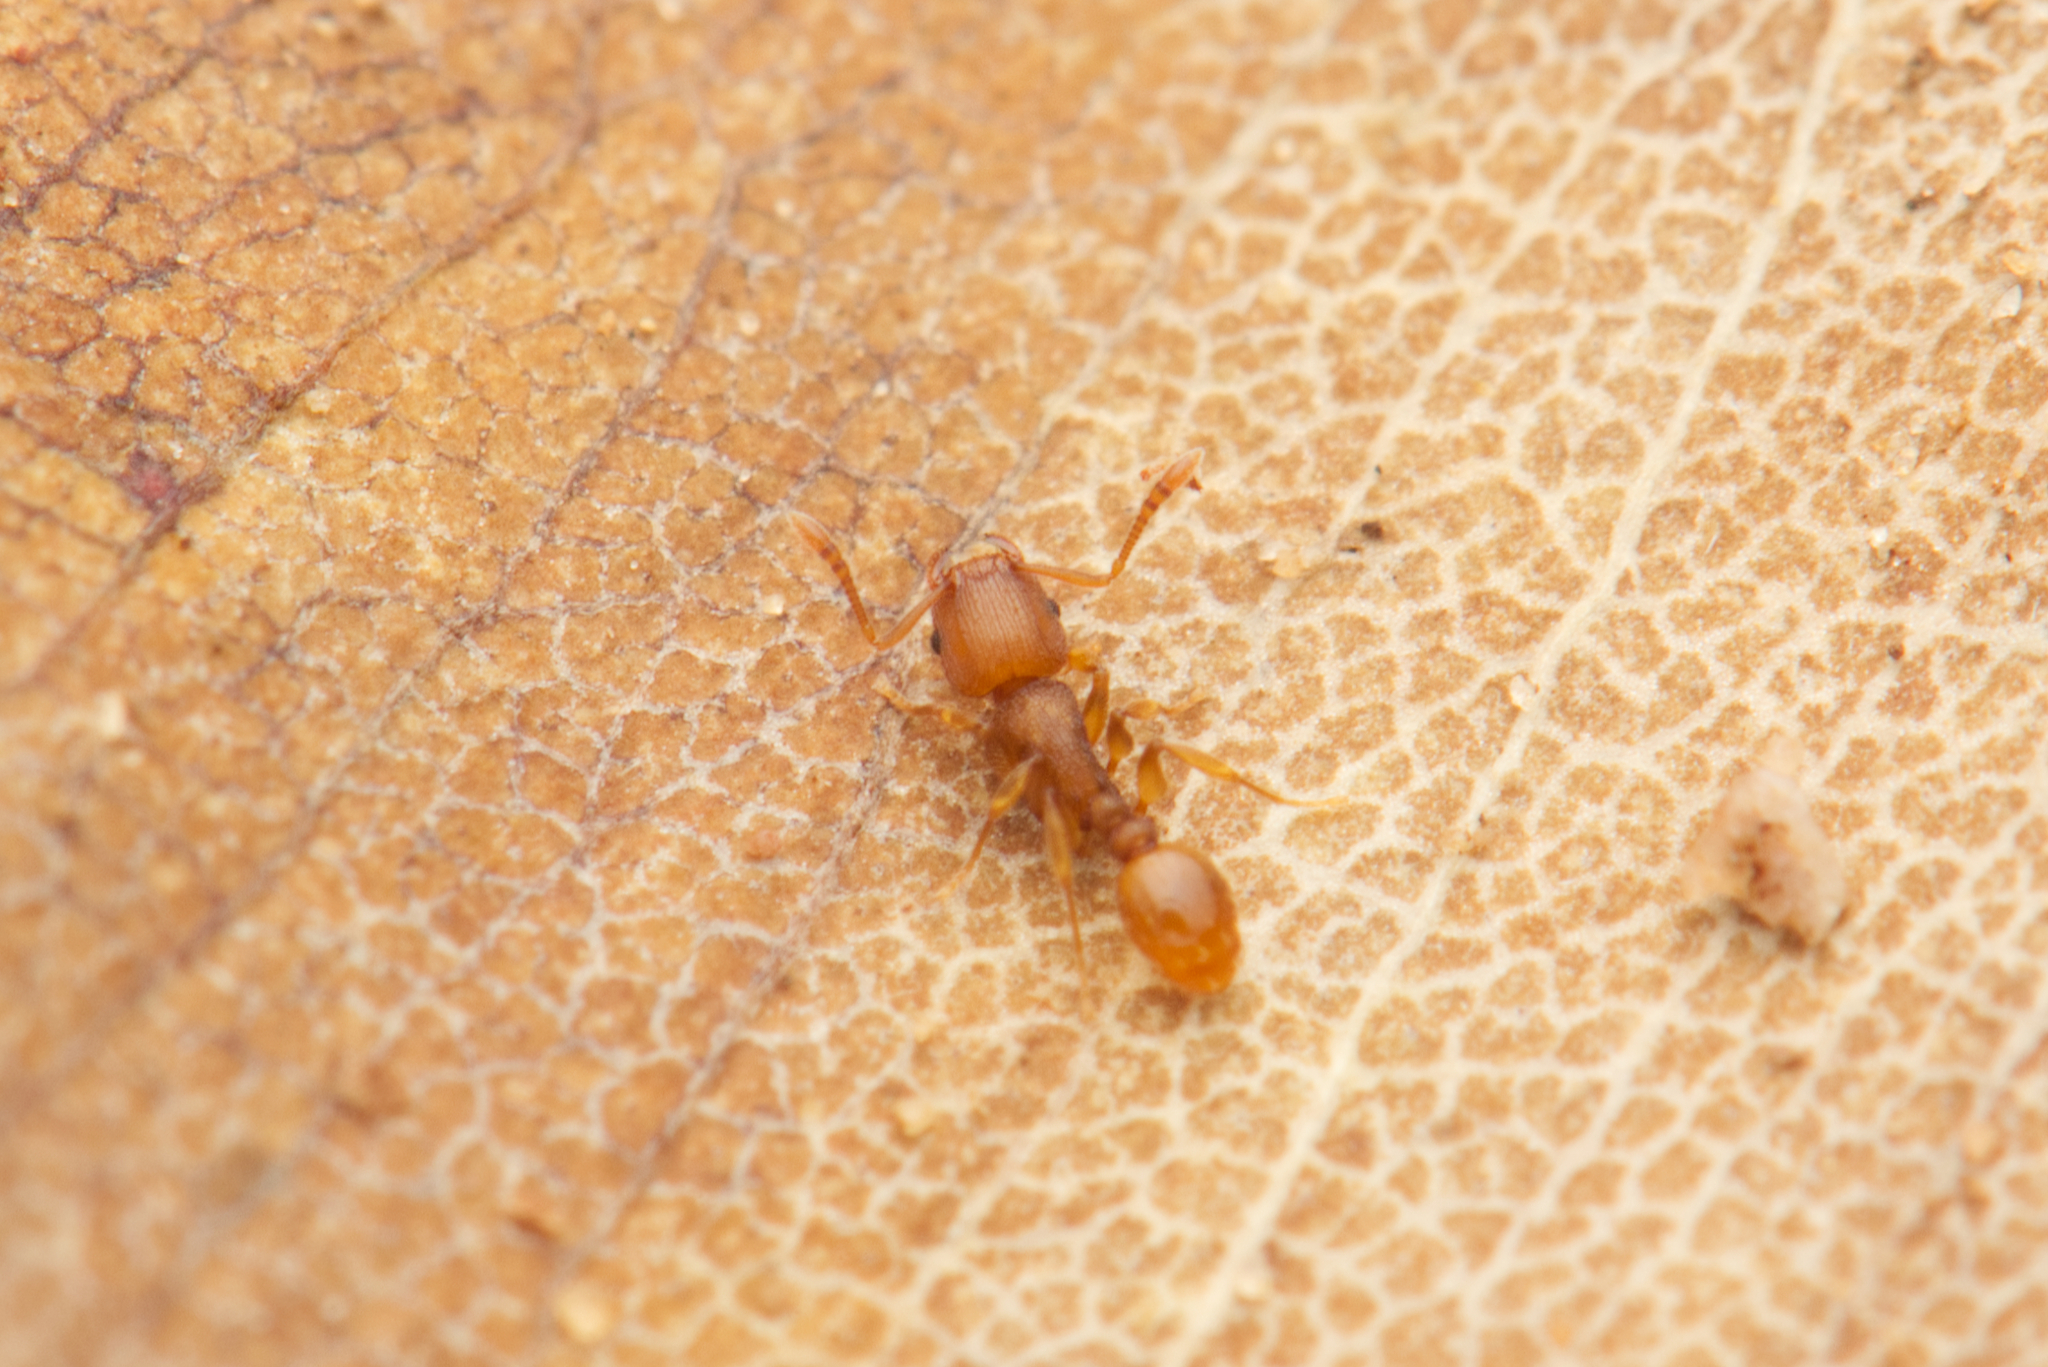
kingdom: Animalia
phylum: Arthropoda
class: Insecta
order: Hymenoptera
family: Formicidae
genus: Tetramorium
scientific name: Tetramorium simillimum
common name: Ant
